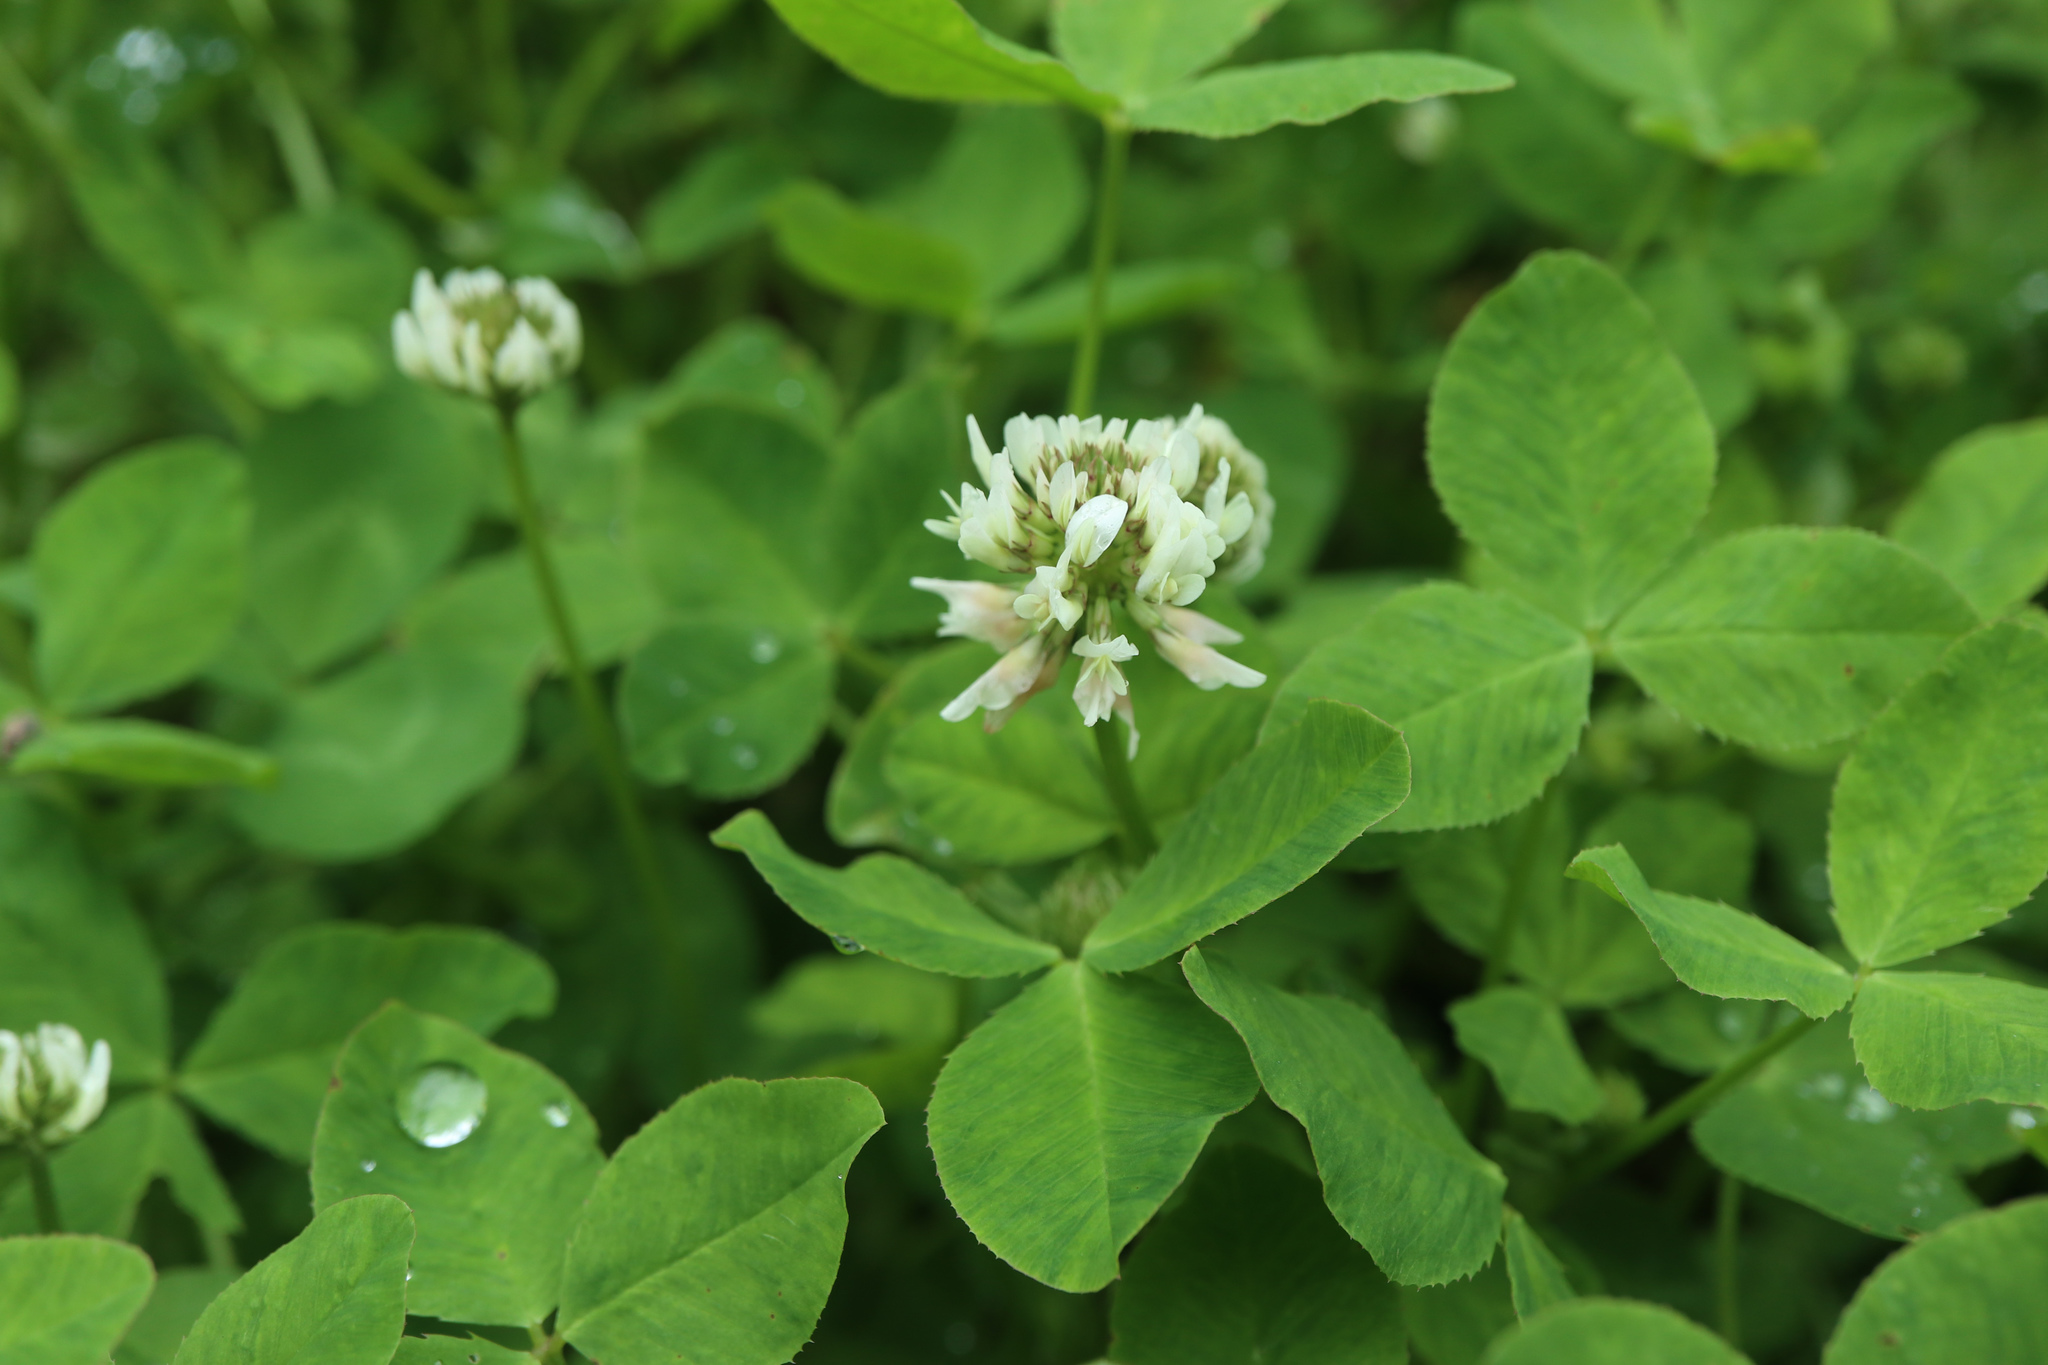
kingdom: Plantae
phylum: Tracheophyta
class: Magnoliopsida
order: Fabales
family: Fabaceae
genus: Trifolium
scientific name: Trifolium repens
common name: White clover
